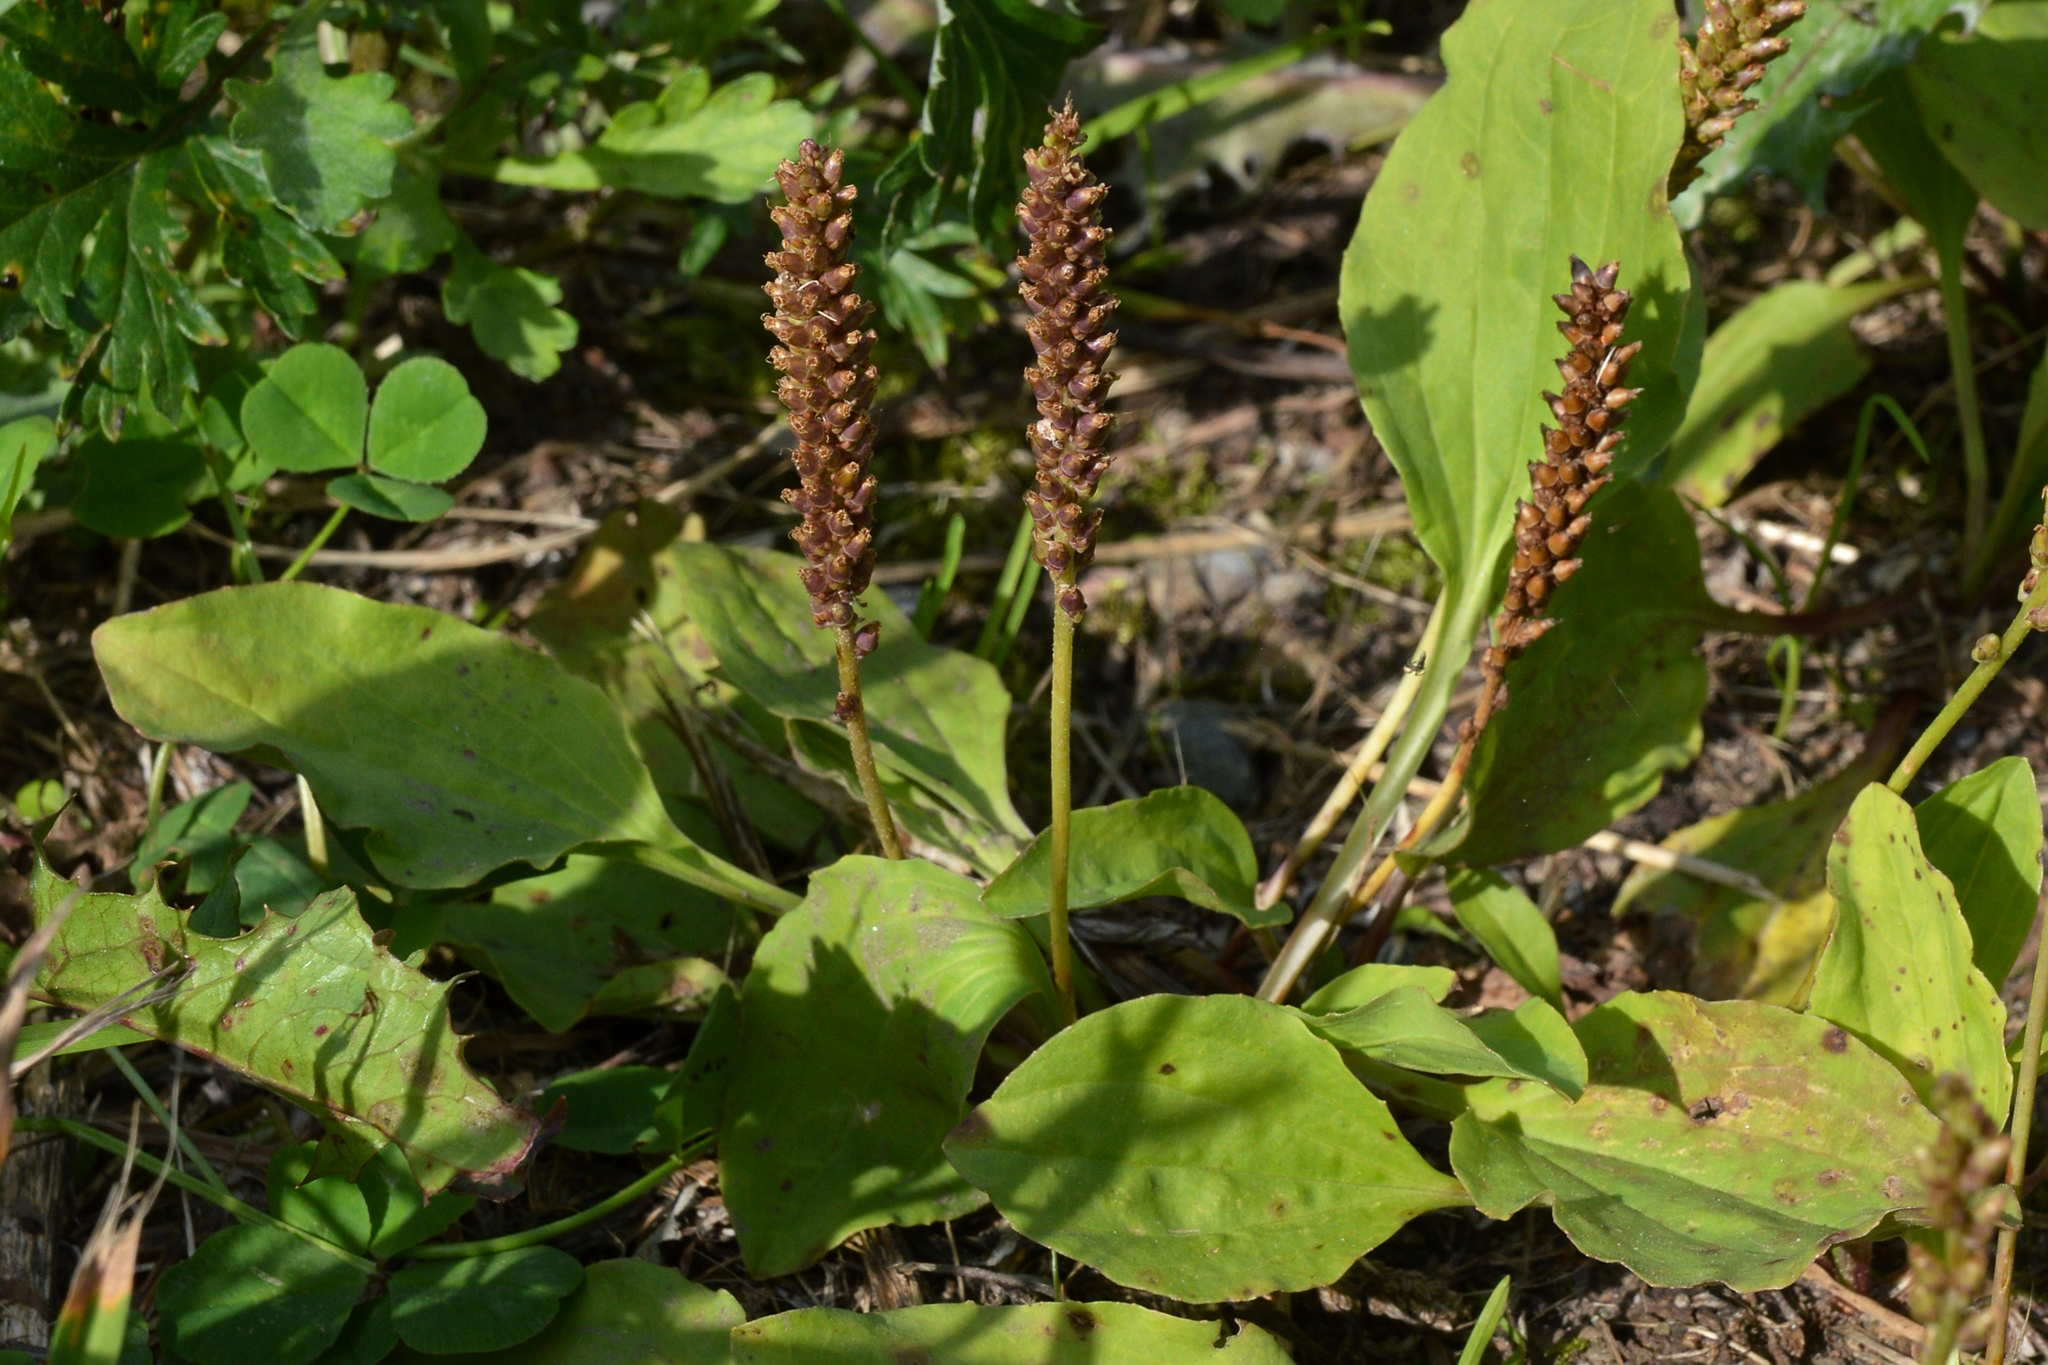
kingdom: Plantae
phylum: Tracheophyta
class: Magnoliopsida
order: Lamiales
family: Plantaginaceae
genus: Plantago
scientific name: Plantago major
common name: Common plantain
